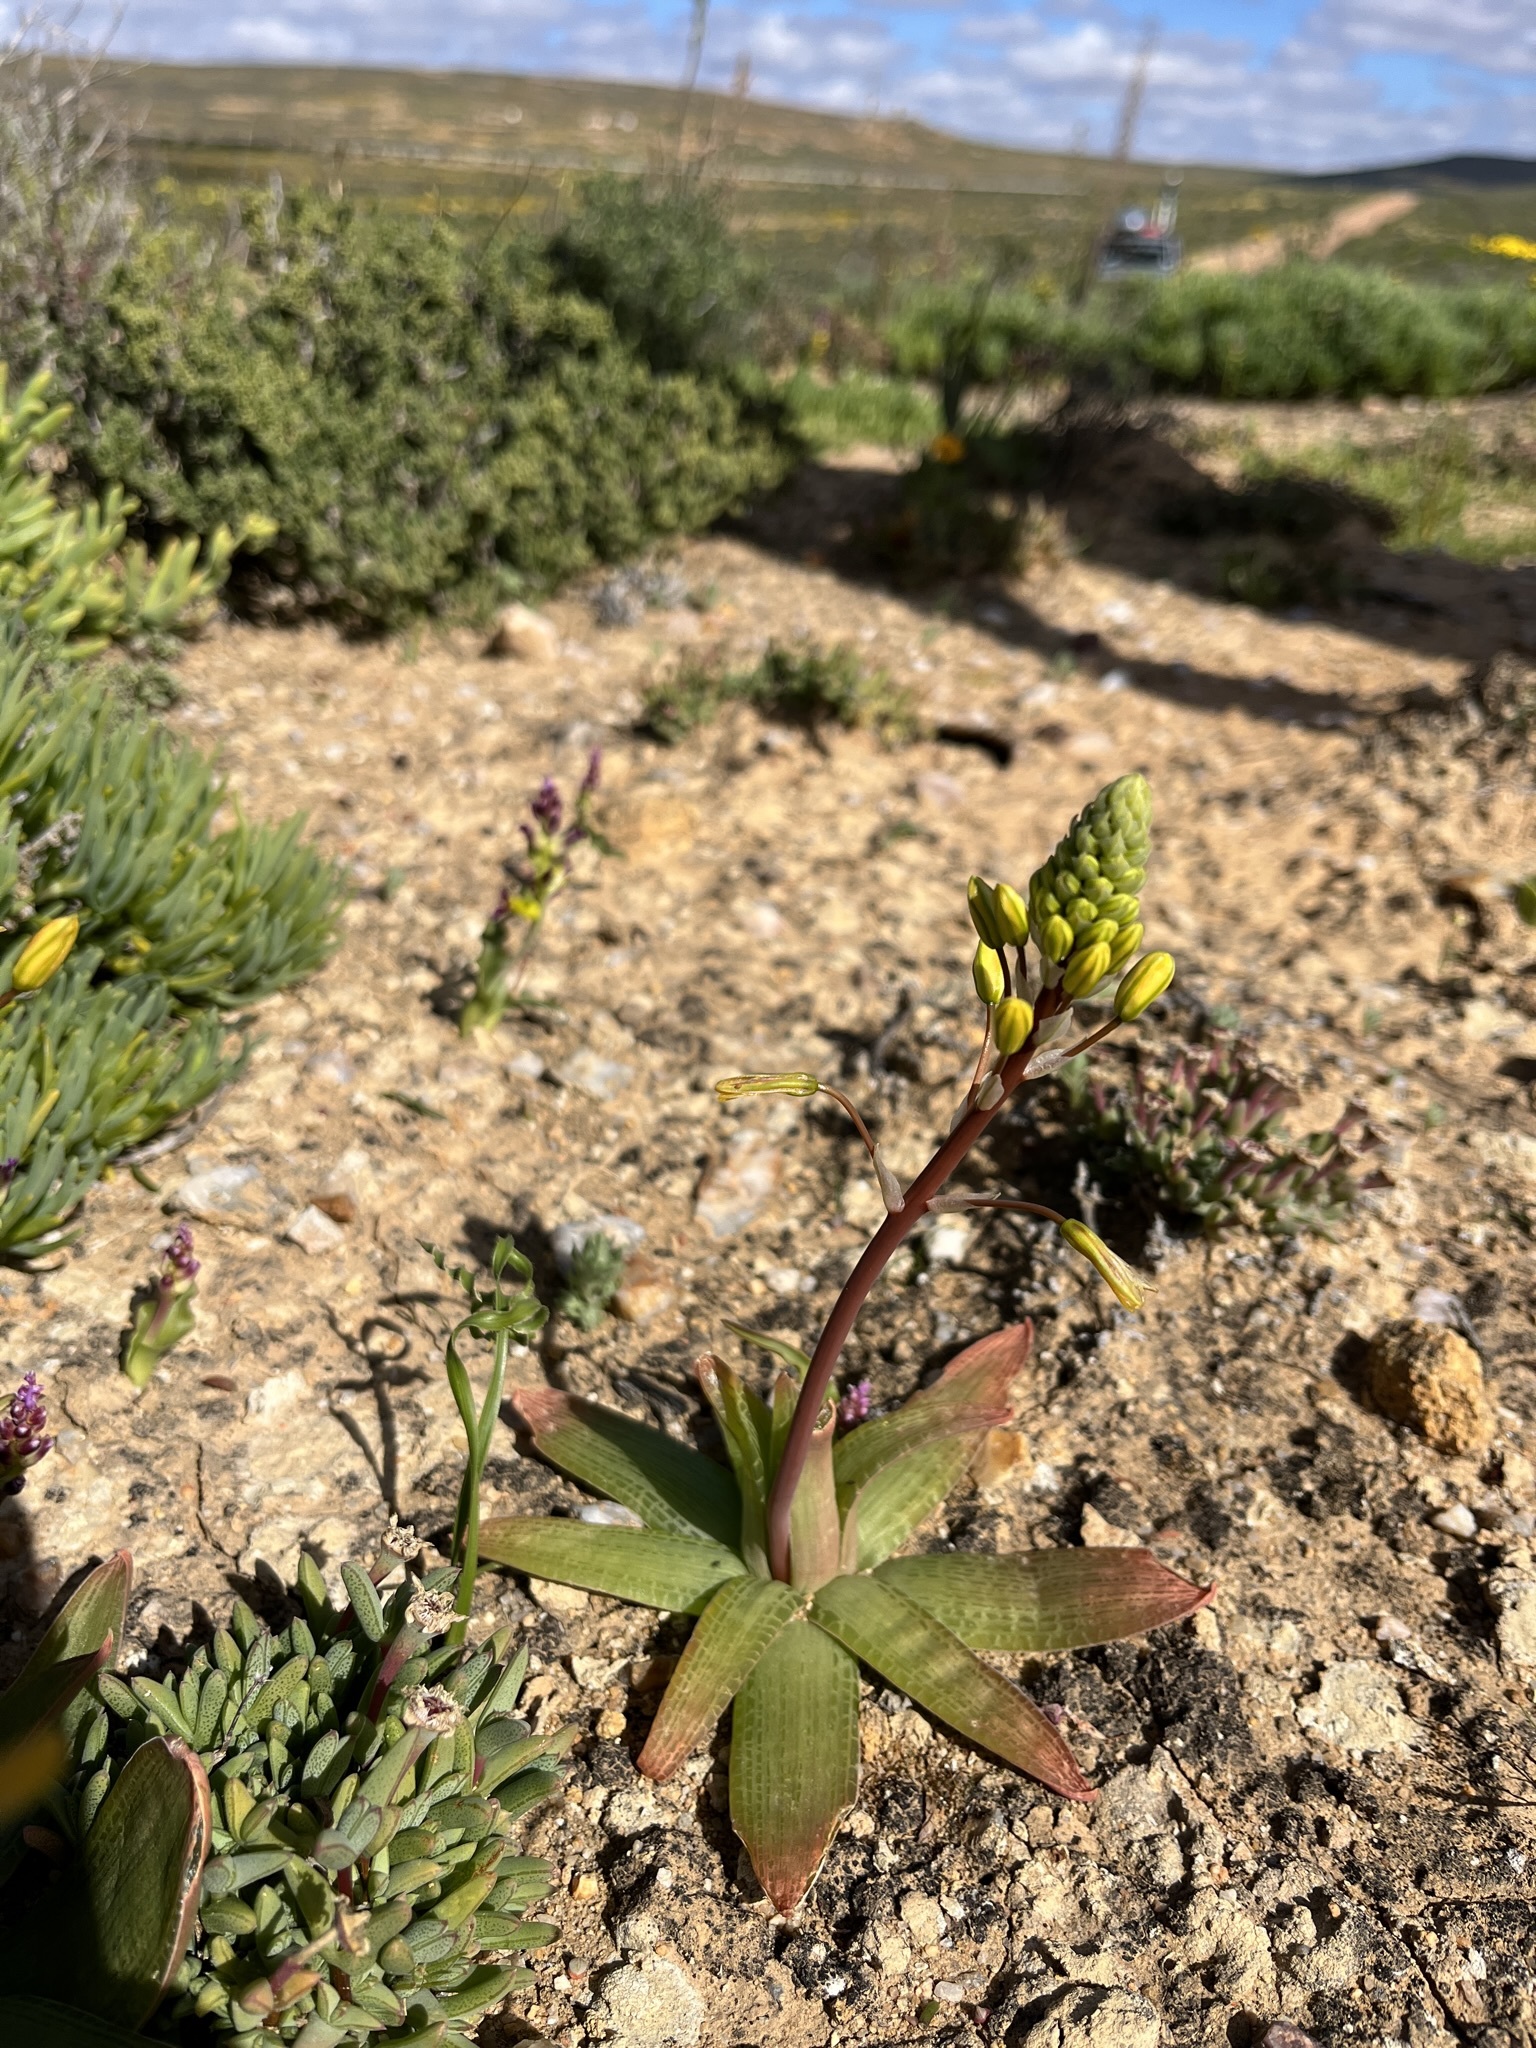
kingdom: Plantae
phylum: Tracheophyta
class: Liliopsida
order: Asparagales
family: Asphodelaceae
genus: Bulbine
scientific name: Bulbine fallax
